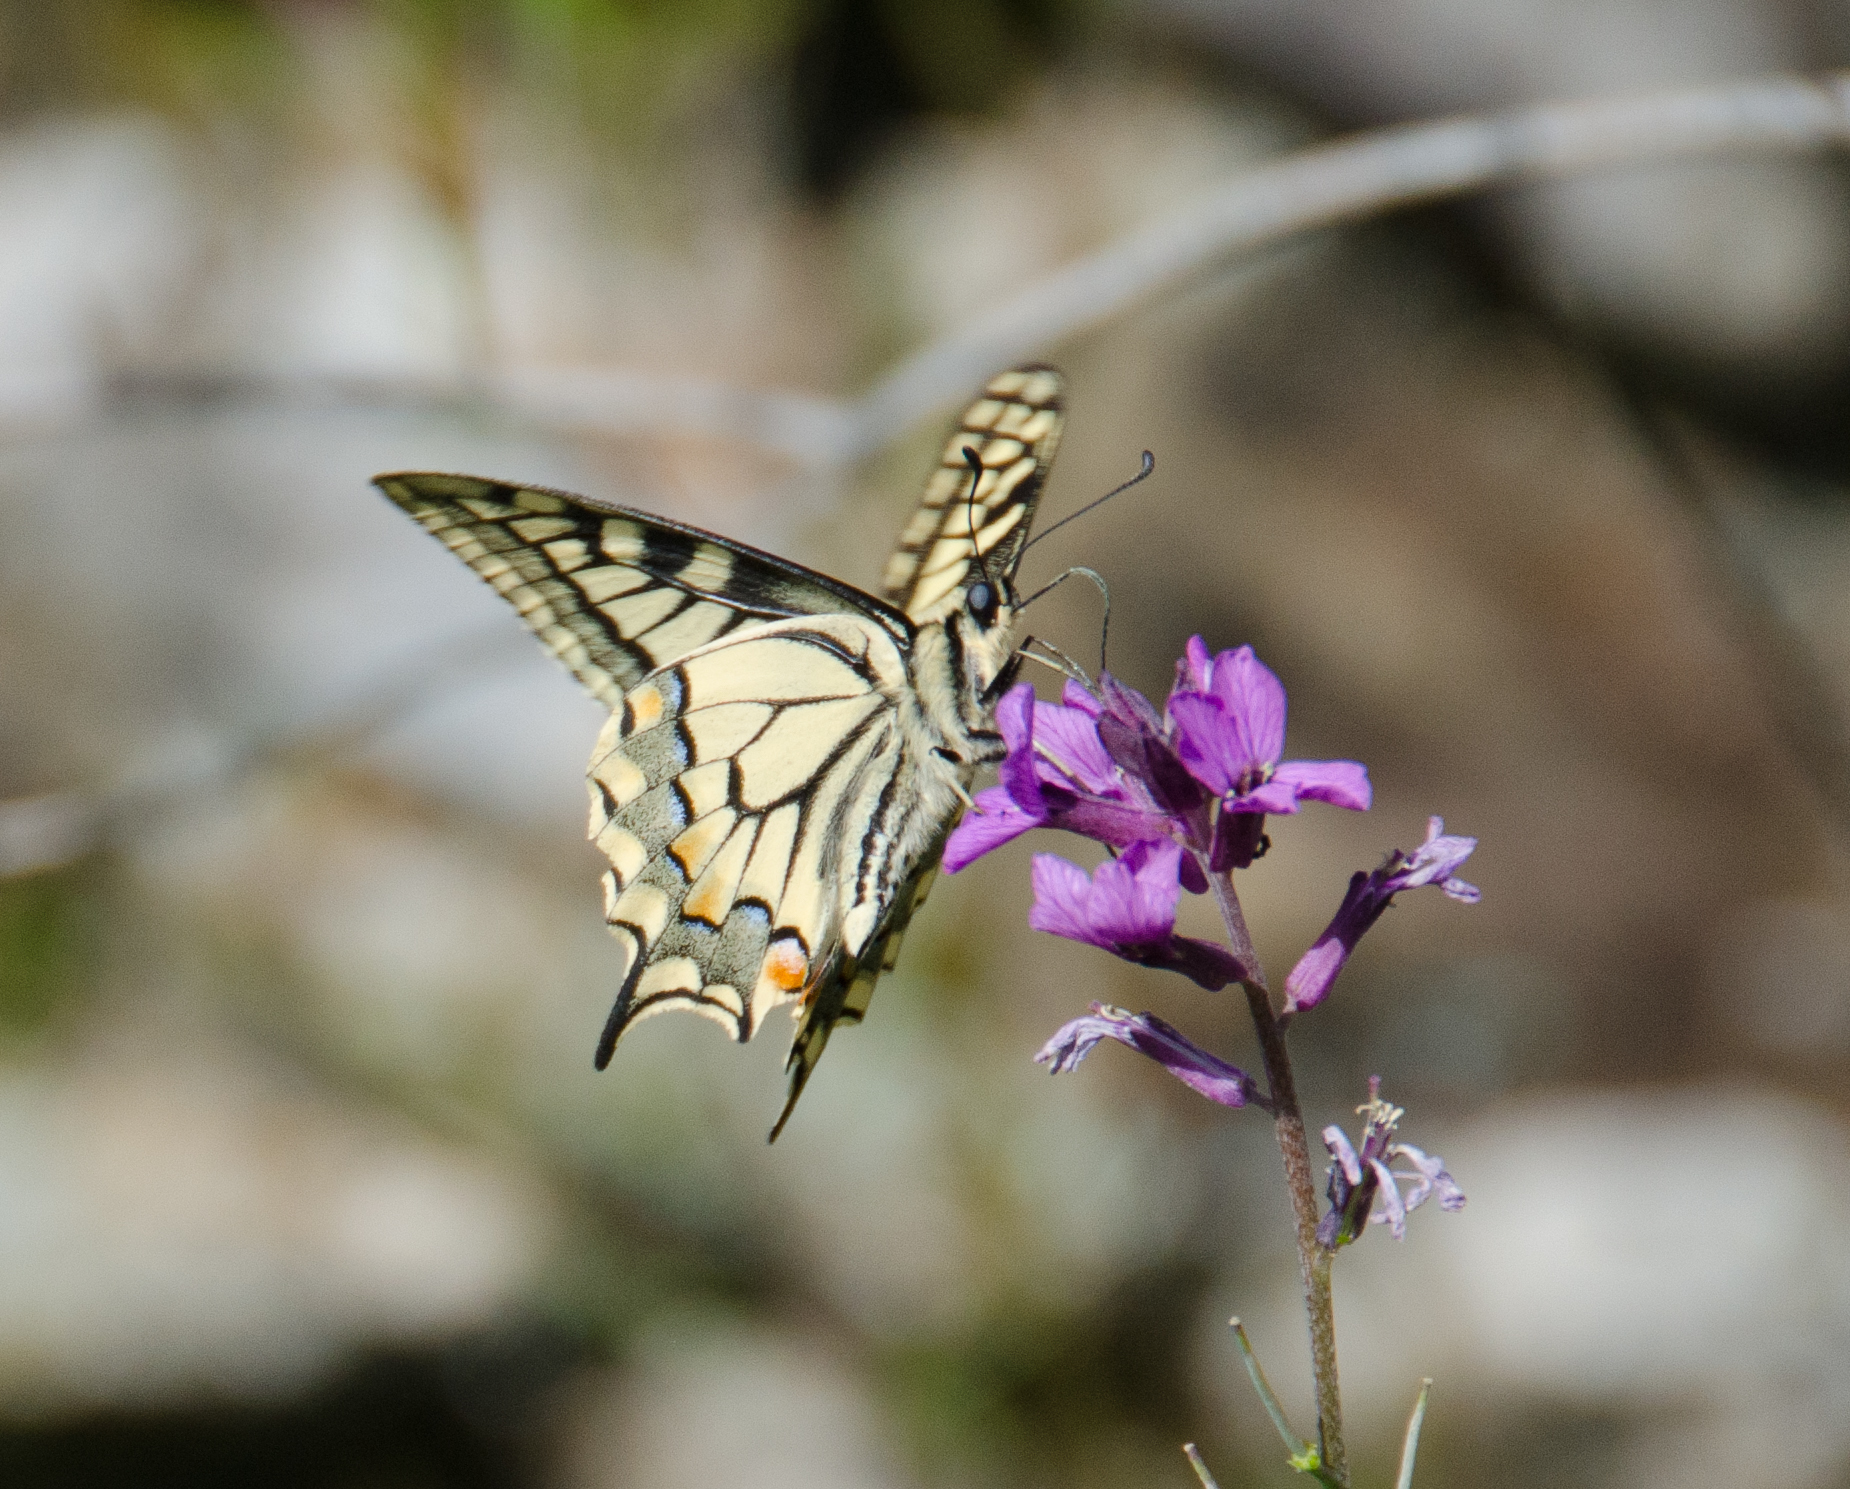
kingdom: Animalia
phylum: Arthropoda
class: Insecta
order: Lepidoptera
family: Papilionidae
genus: Papilio
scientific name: Papilio machaon
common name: Swallowtail
